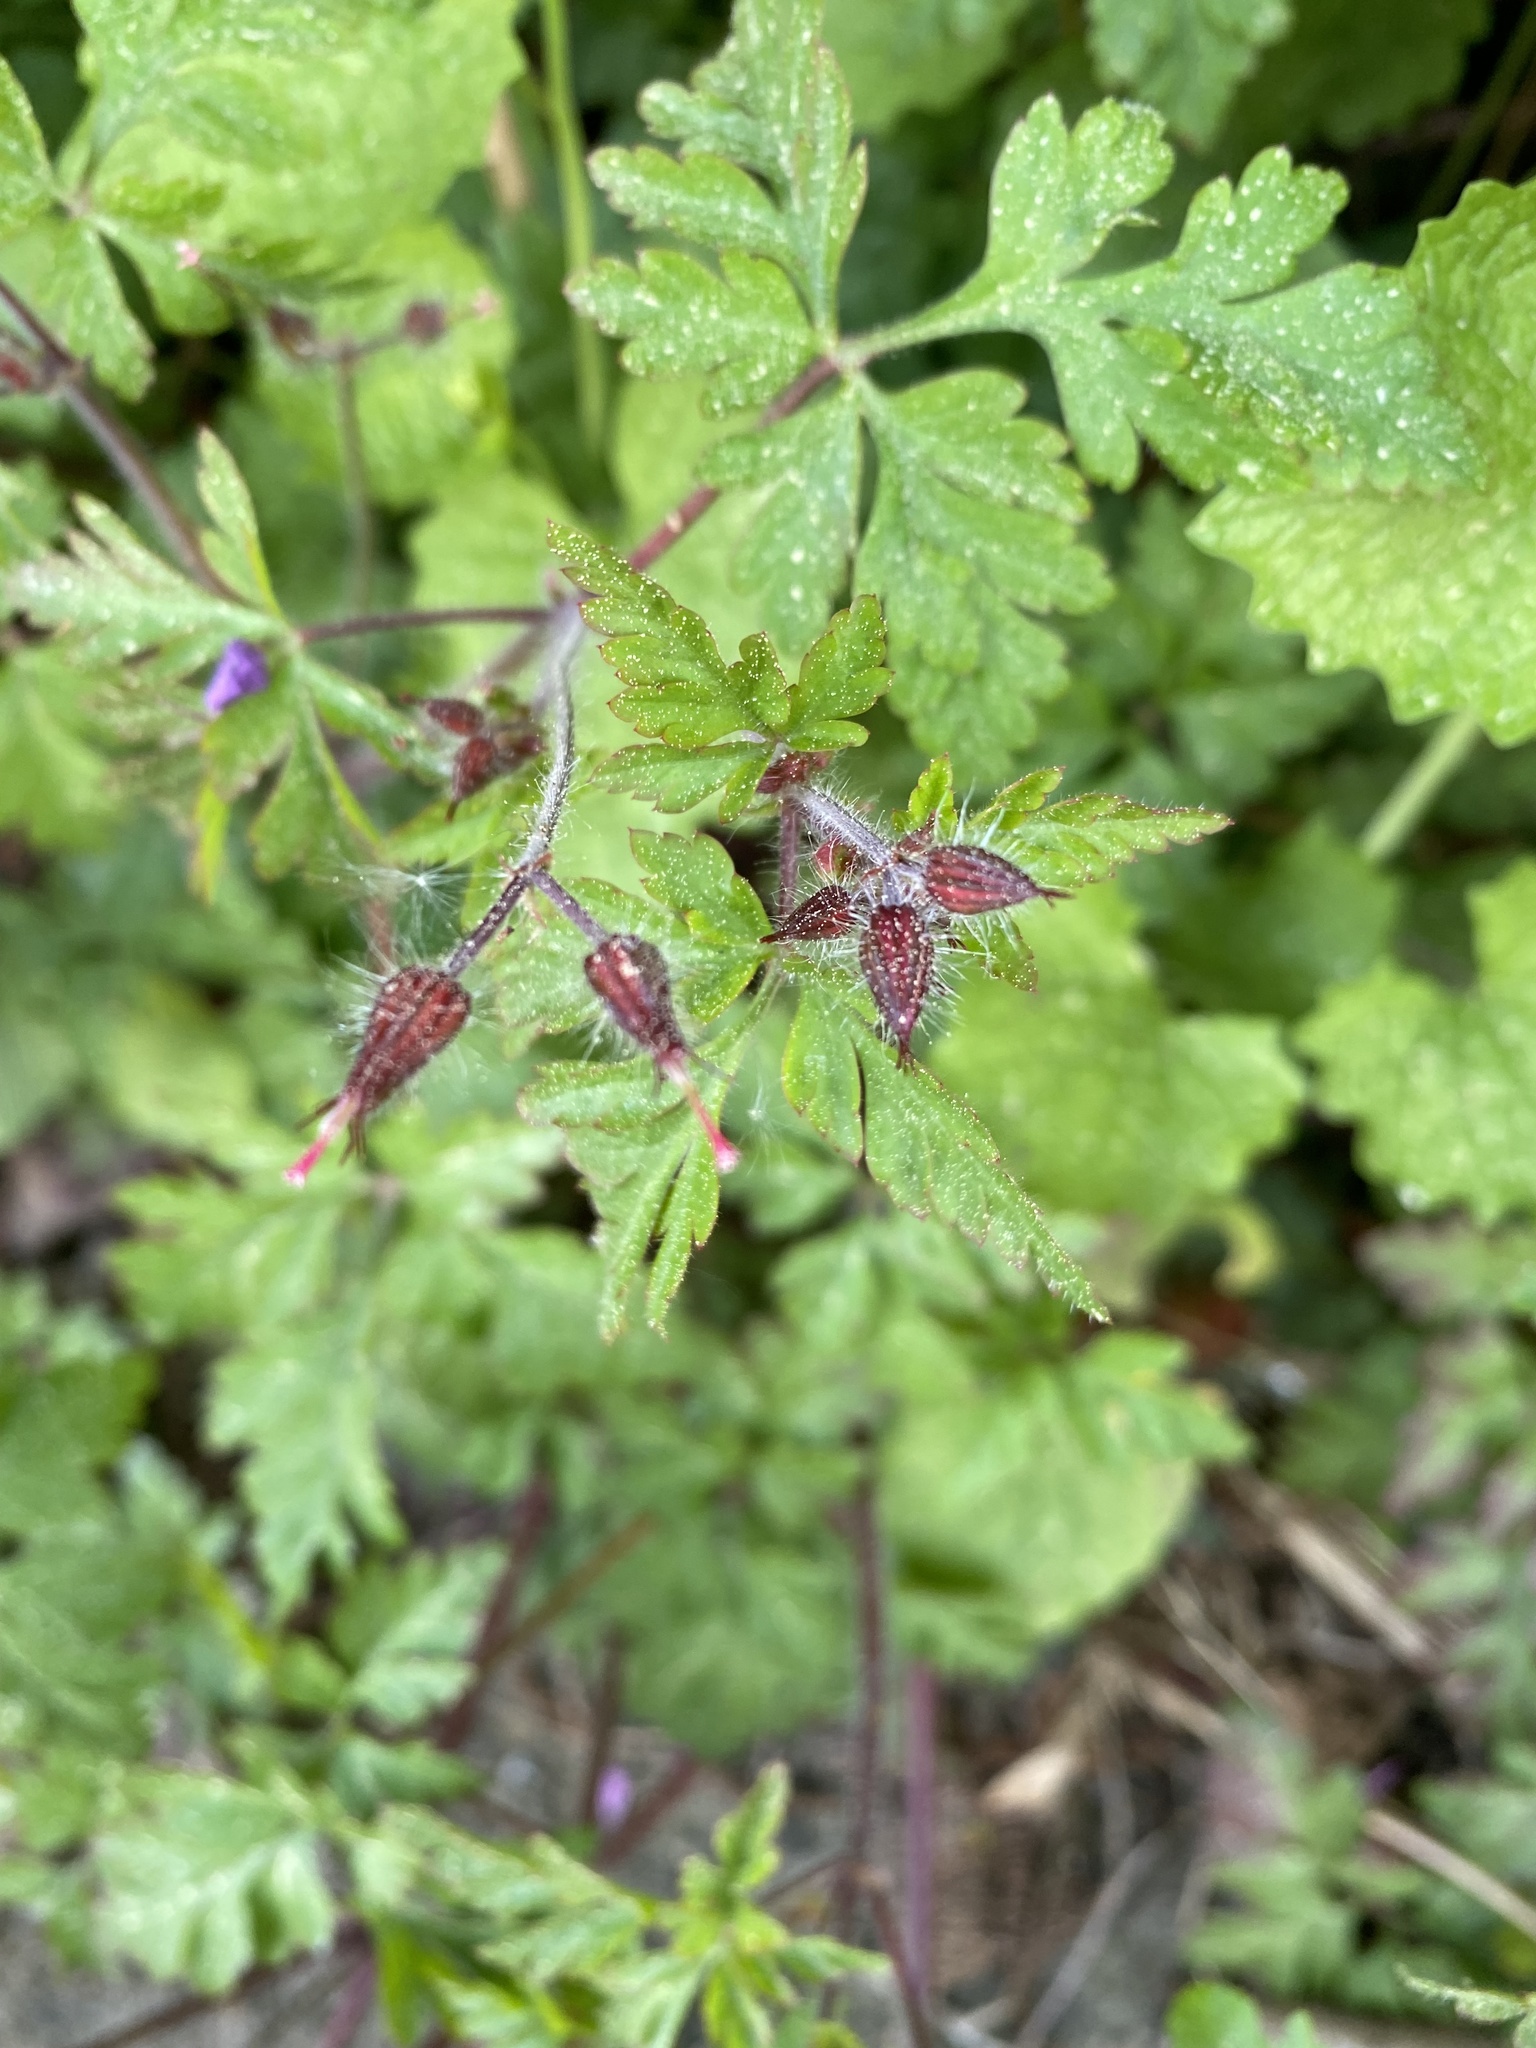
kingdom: Plantae
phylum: Tracheophyta
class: Magnoliopsida
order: Geraniales
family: Geraniaceae
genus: Geranium
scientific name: Geranium robertianum
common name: Herb-robert
